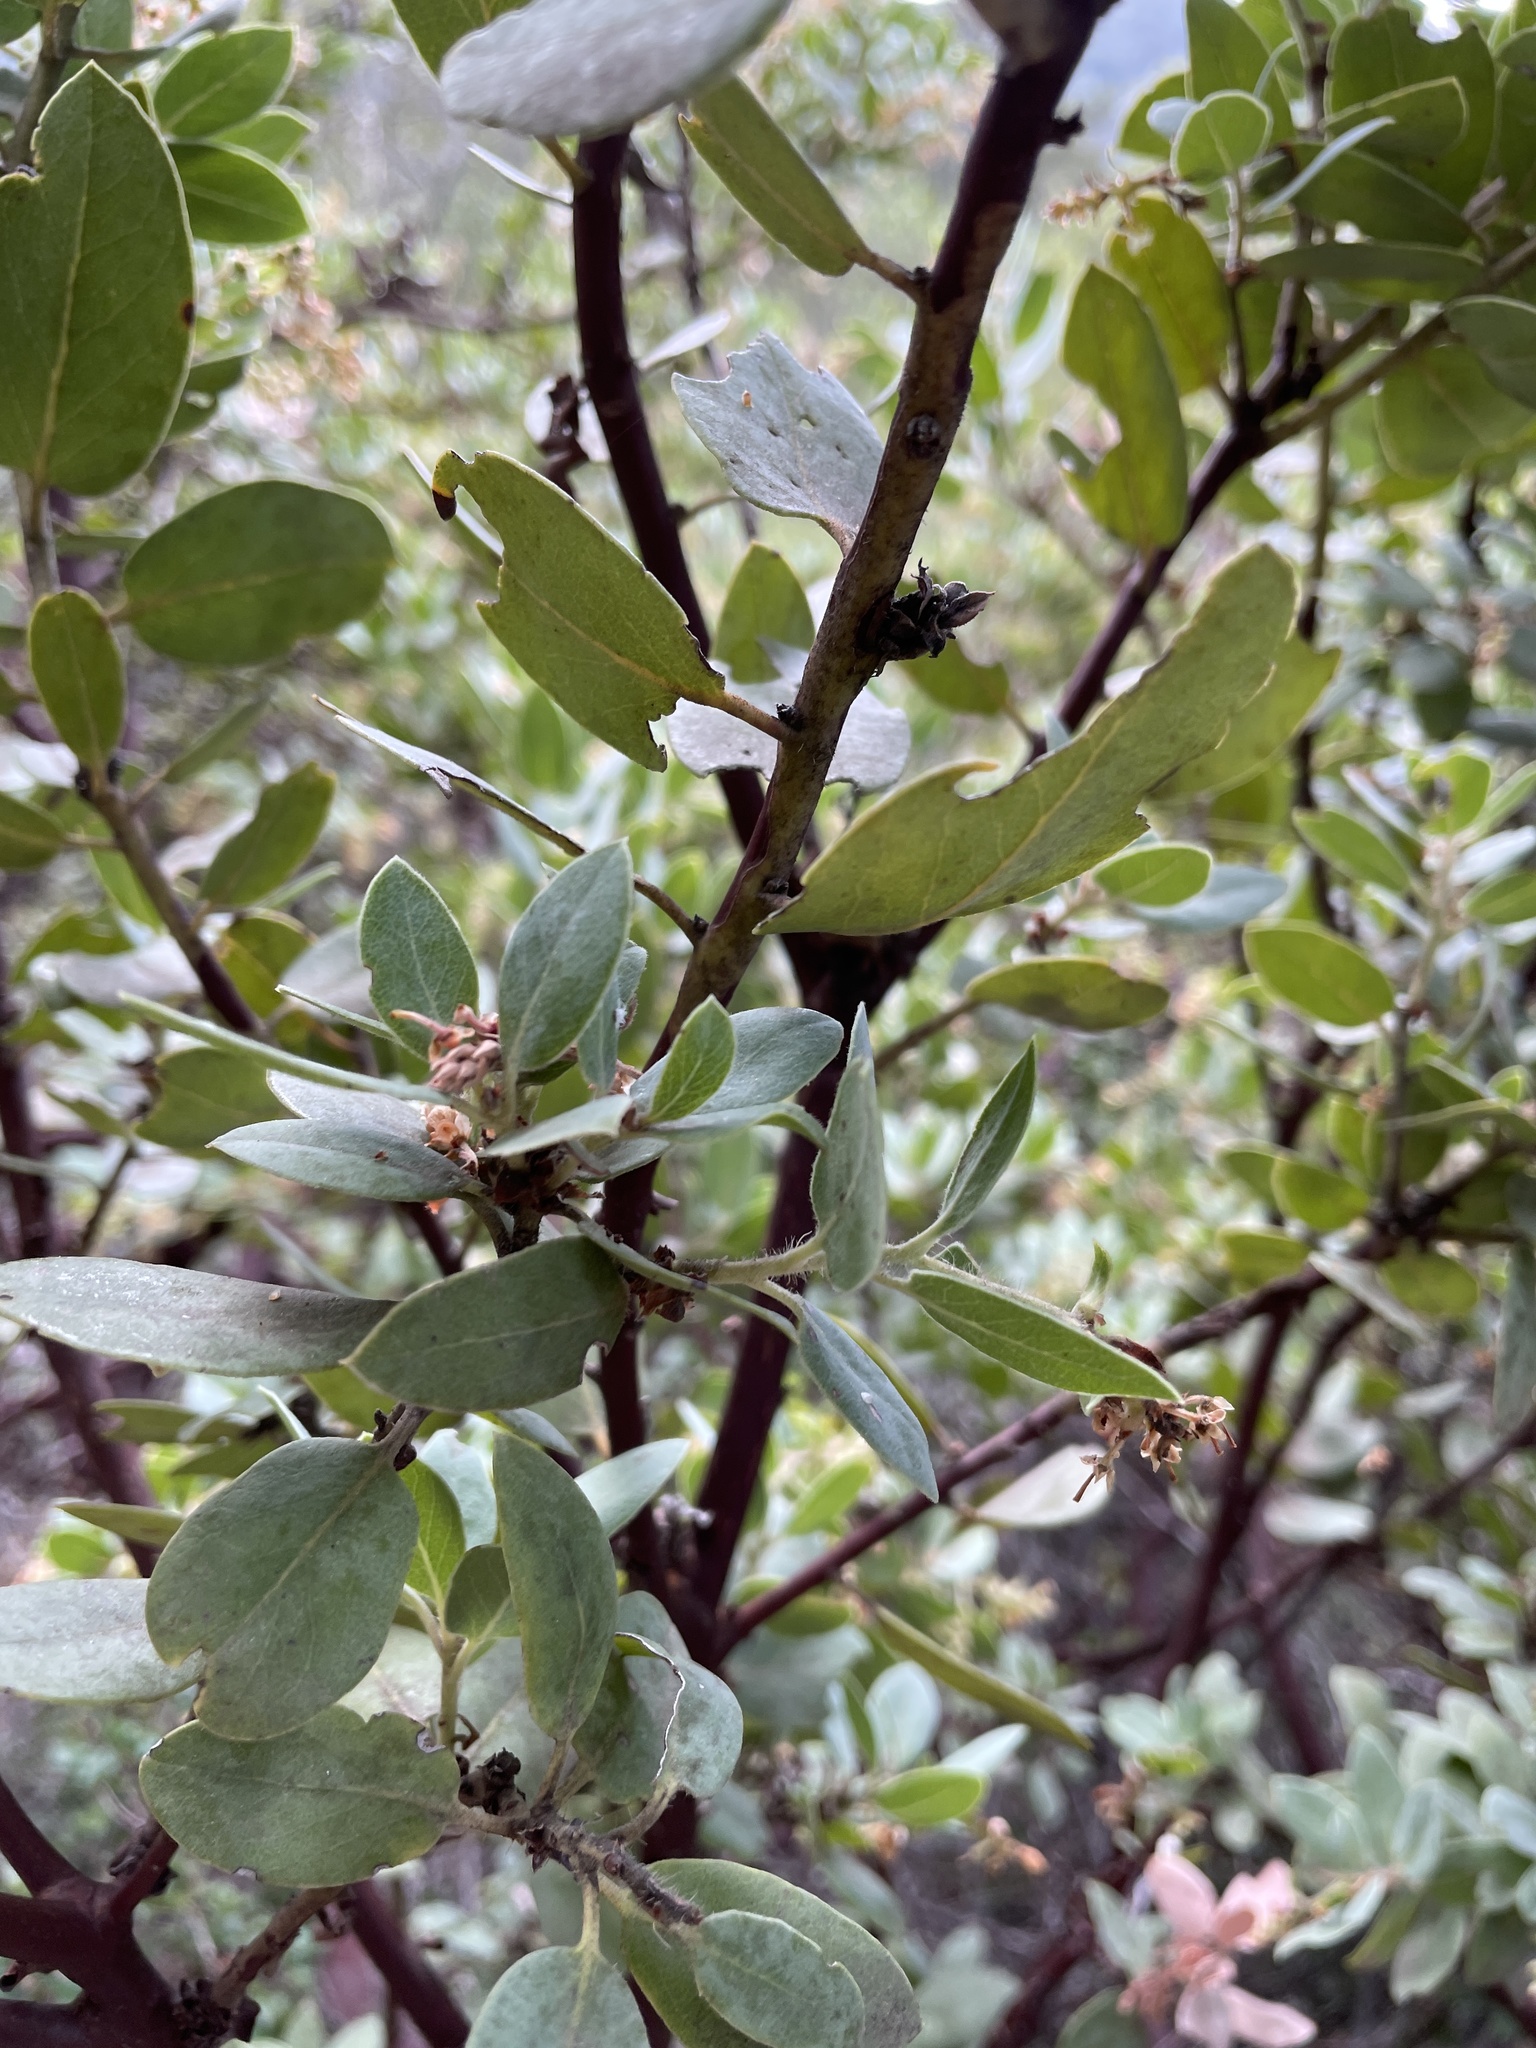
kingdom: Plantae
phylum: Tracheophyta
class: Magnoliopsida
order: Ericales
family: Ericaceae
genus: Arctostaphylos
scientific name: Arctostaphylos crustacea
